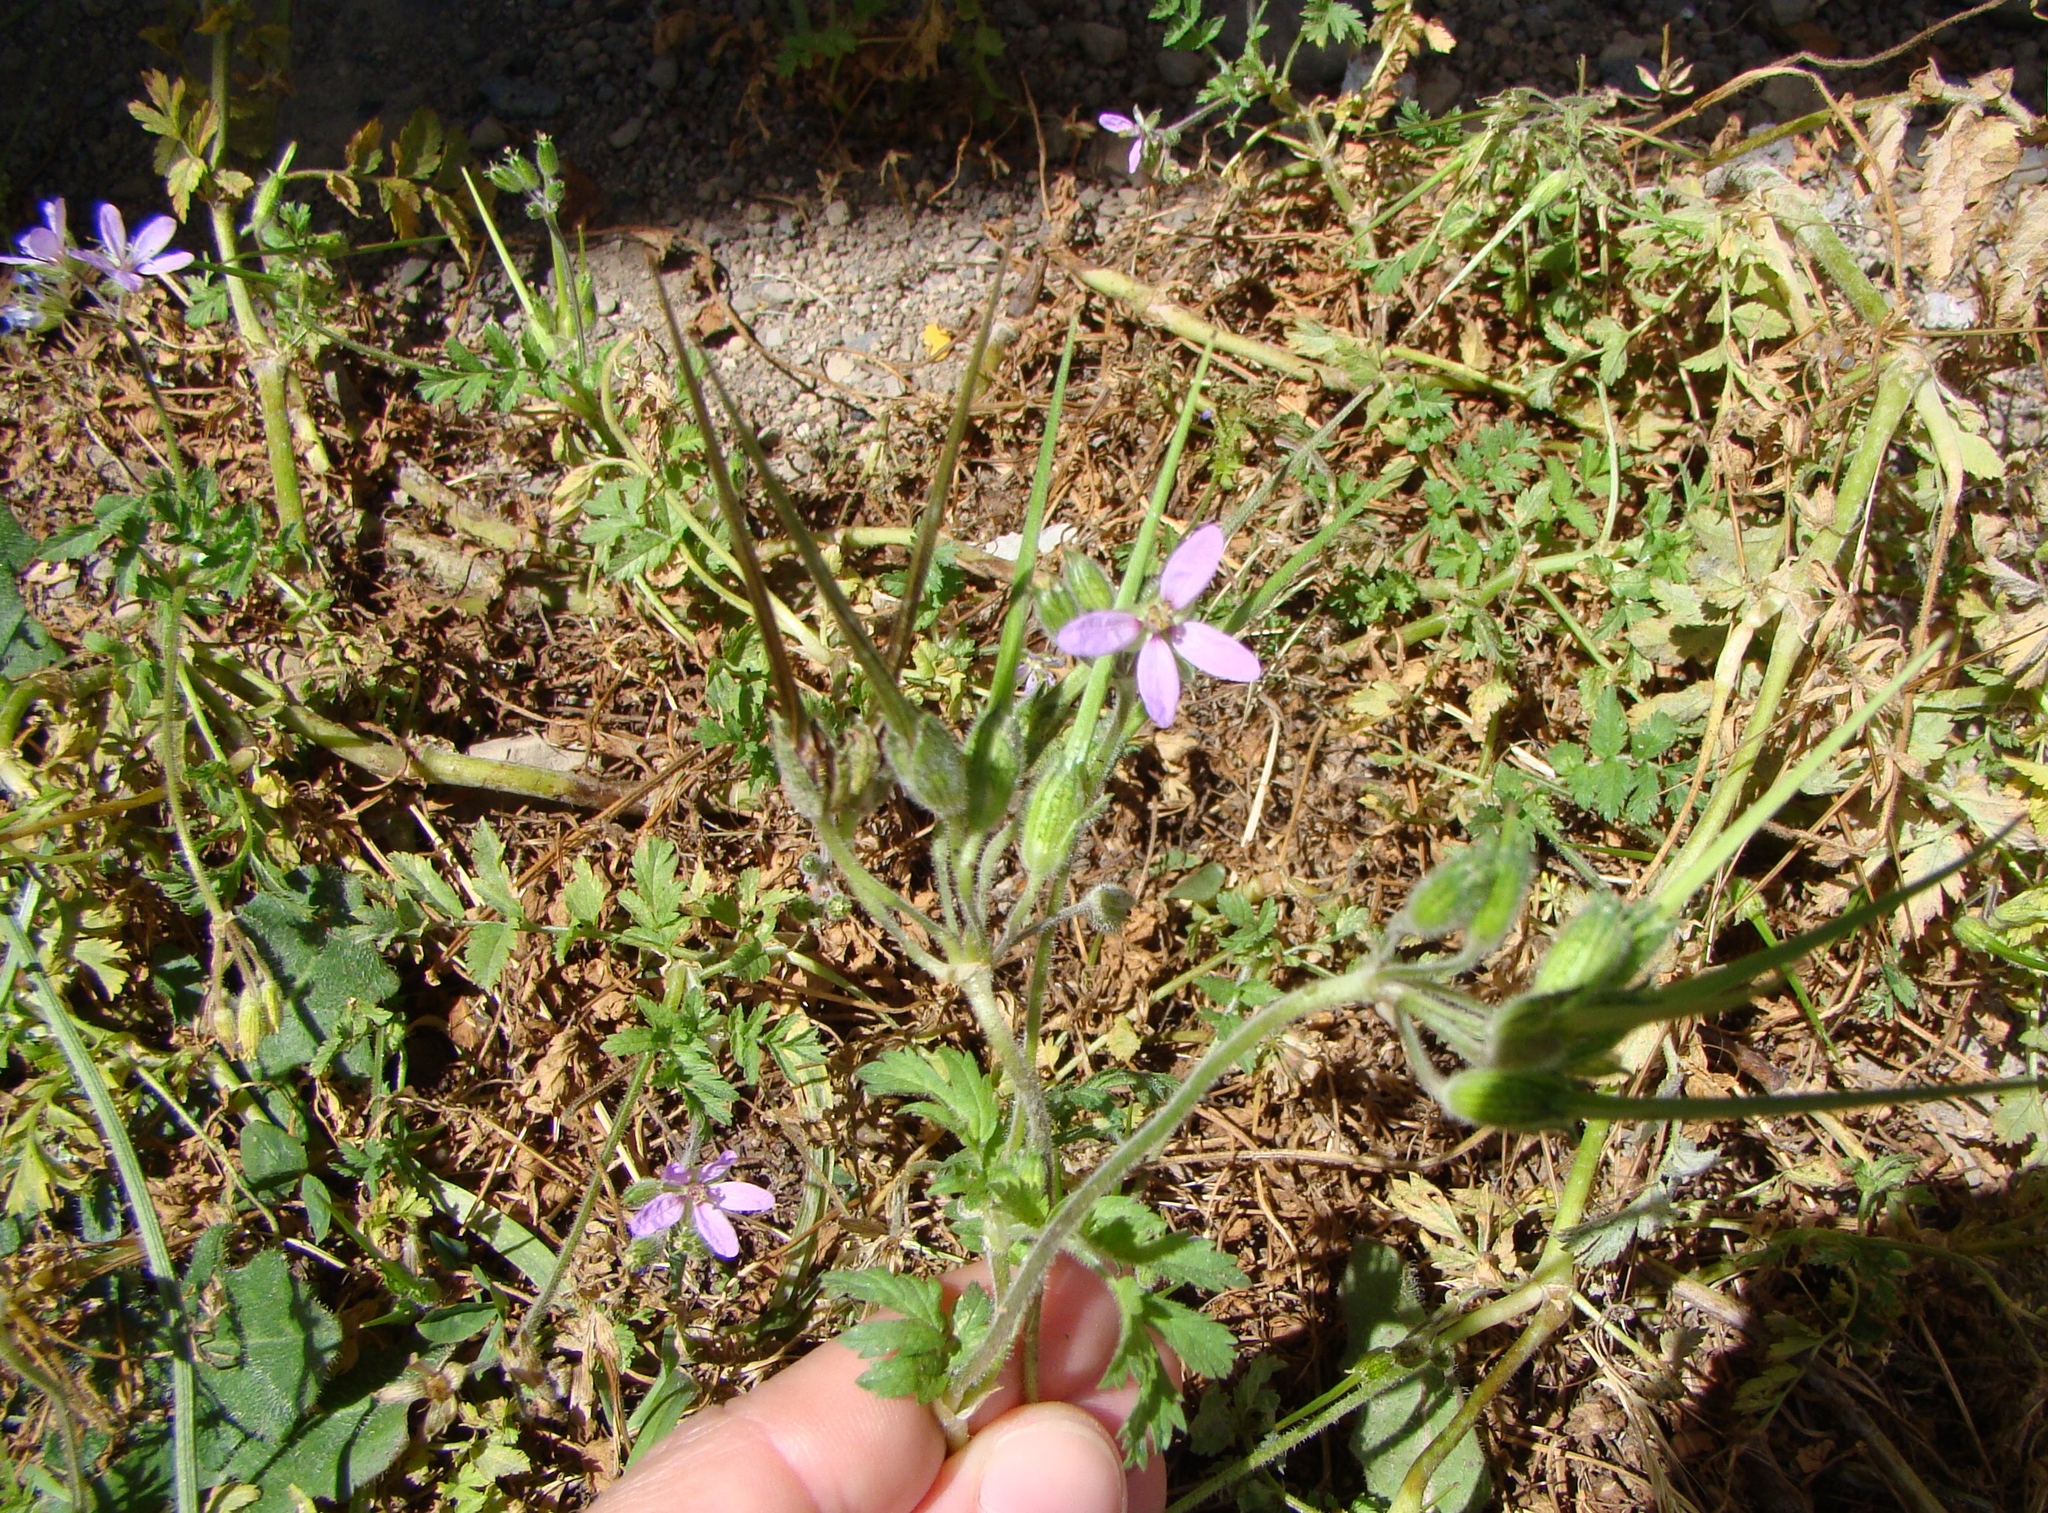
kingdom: Plantae
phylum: Tracheophyta
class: Magnoliopsida
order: Geraniales
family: Geraniaceae
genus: Erodium
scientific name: Erodium moschatum
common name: Musk stork's-bill
